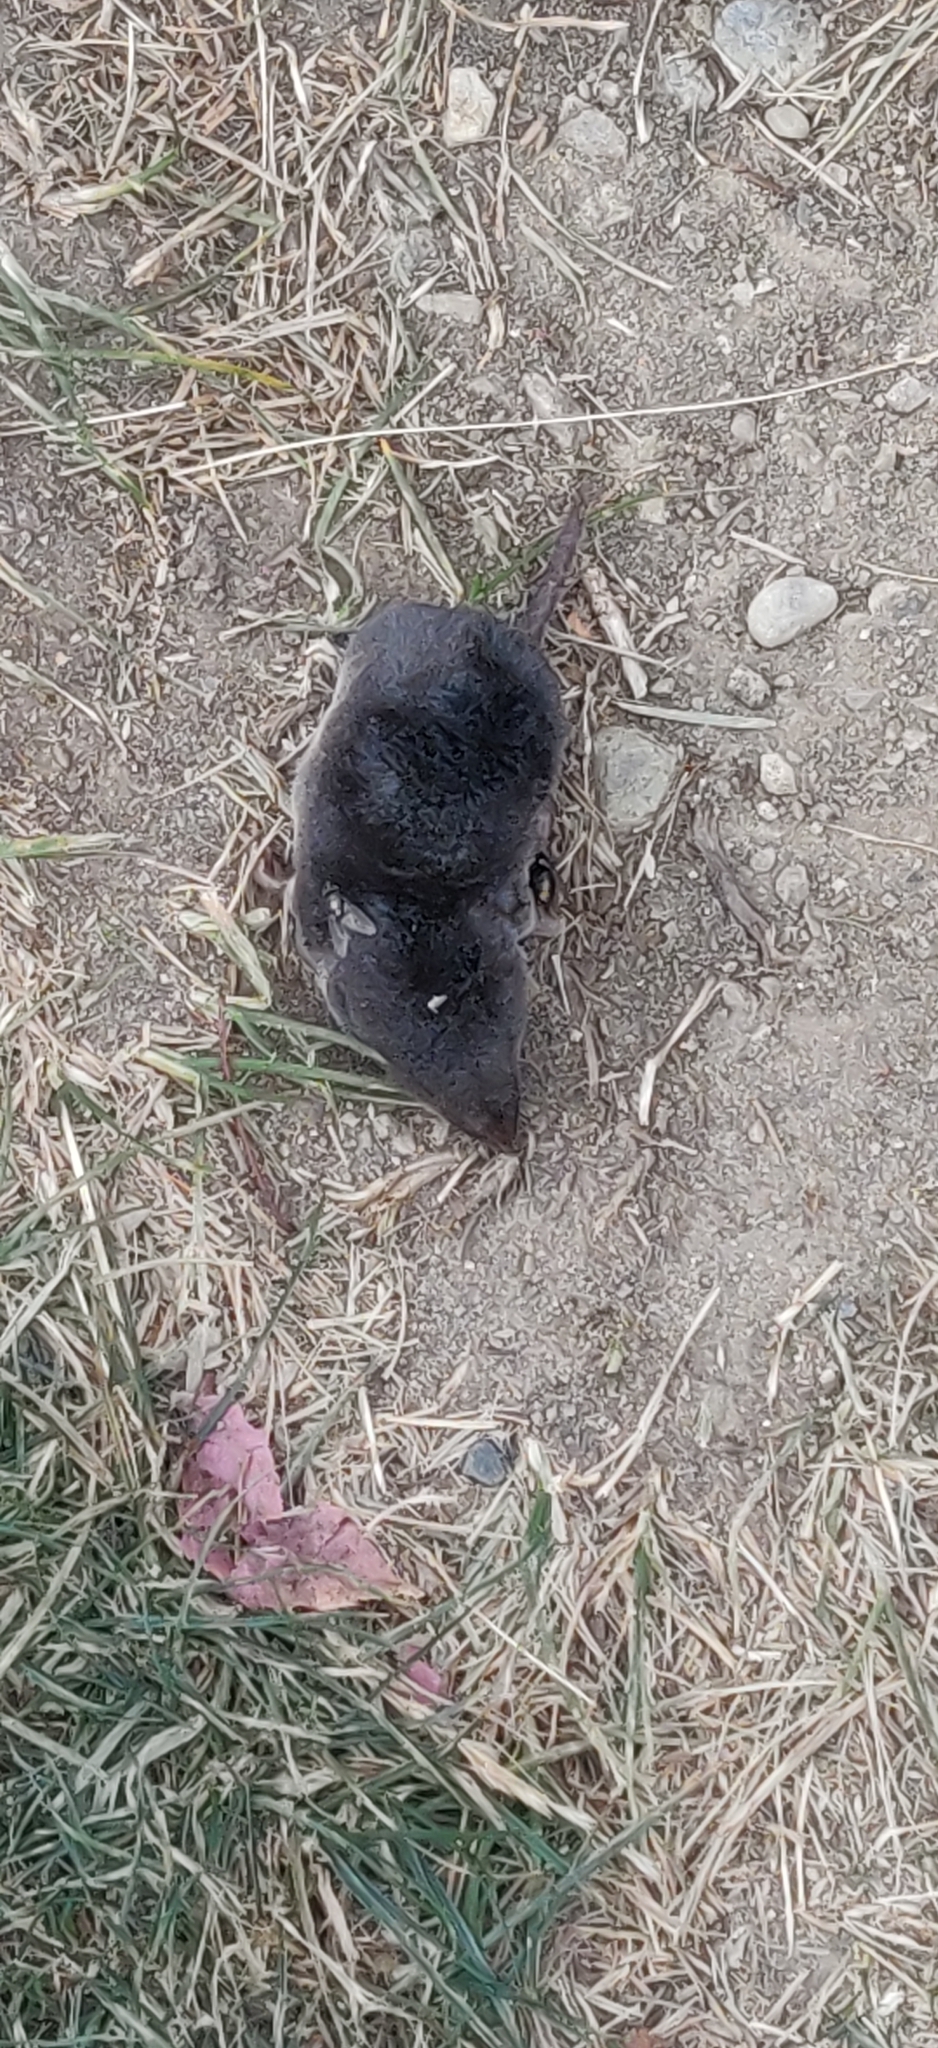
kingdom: Animalia
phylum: Chordata
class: Mammalia
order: Soricomorpha
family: Soricidae
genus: Blarina
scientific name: Blarina brevicauda
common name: Northern short-tailed shrew
